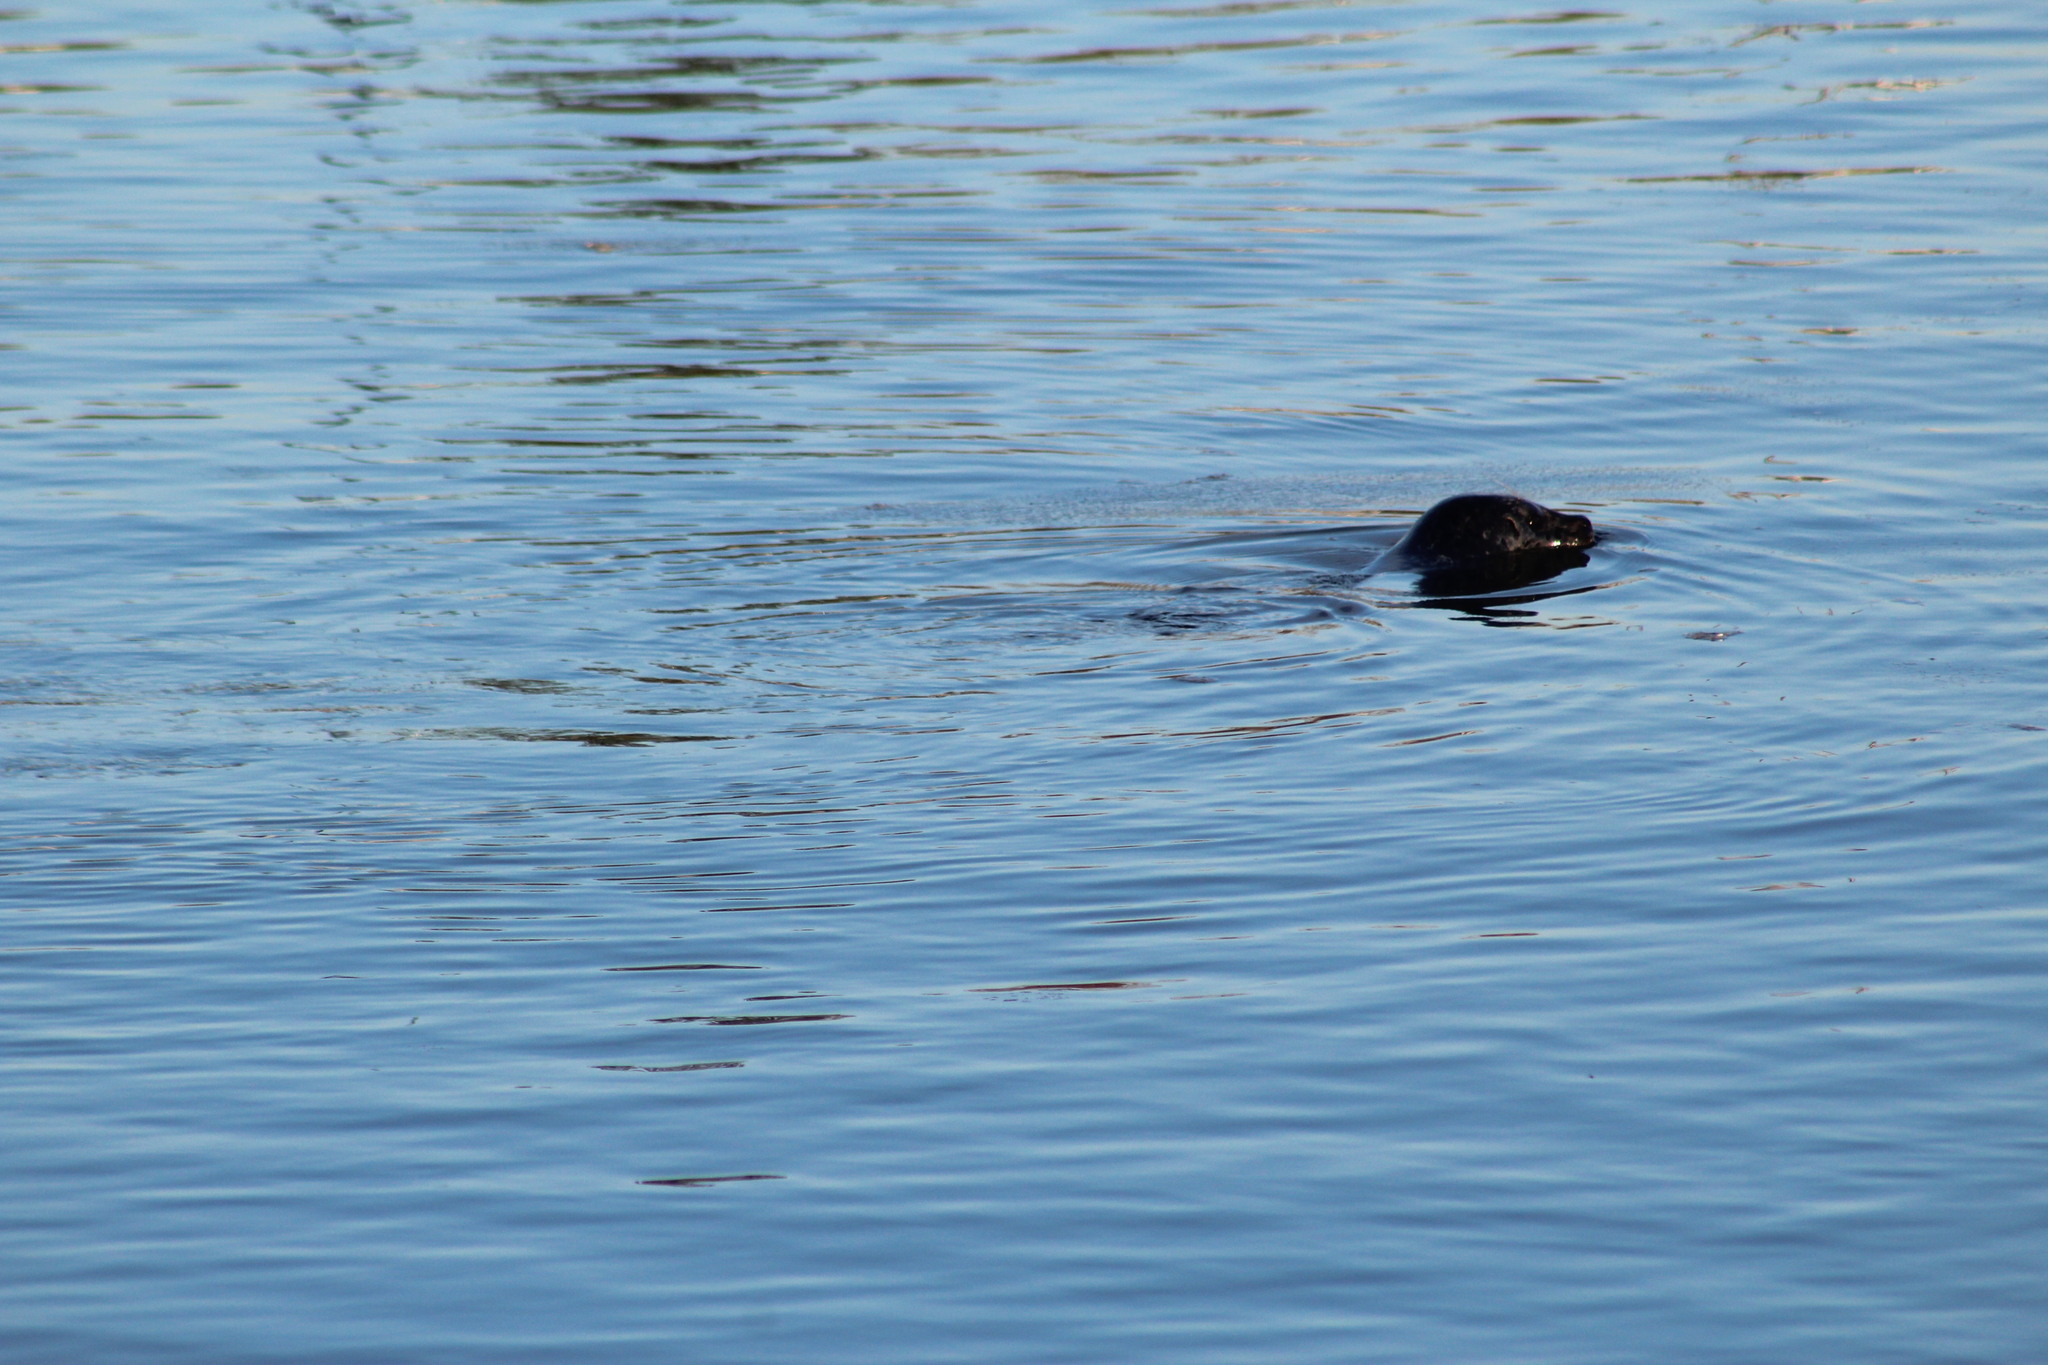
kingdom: Animalia
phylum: Chordata
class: Mammalia
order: Carnivora
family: Phocidae
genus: Phoca
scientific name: Phoca vitulina
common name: Harbor seal
